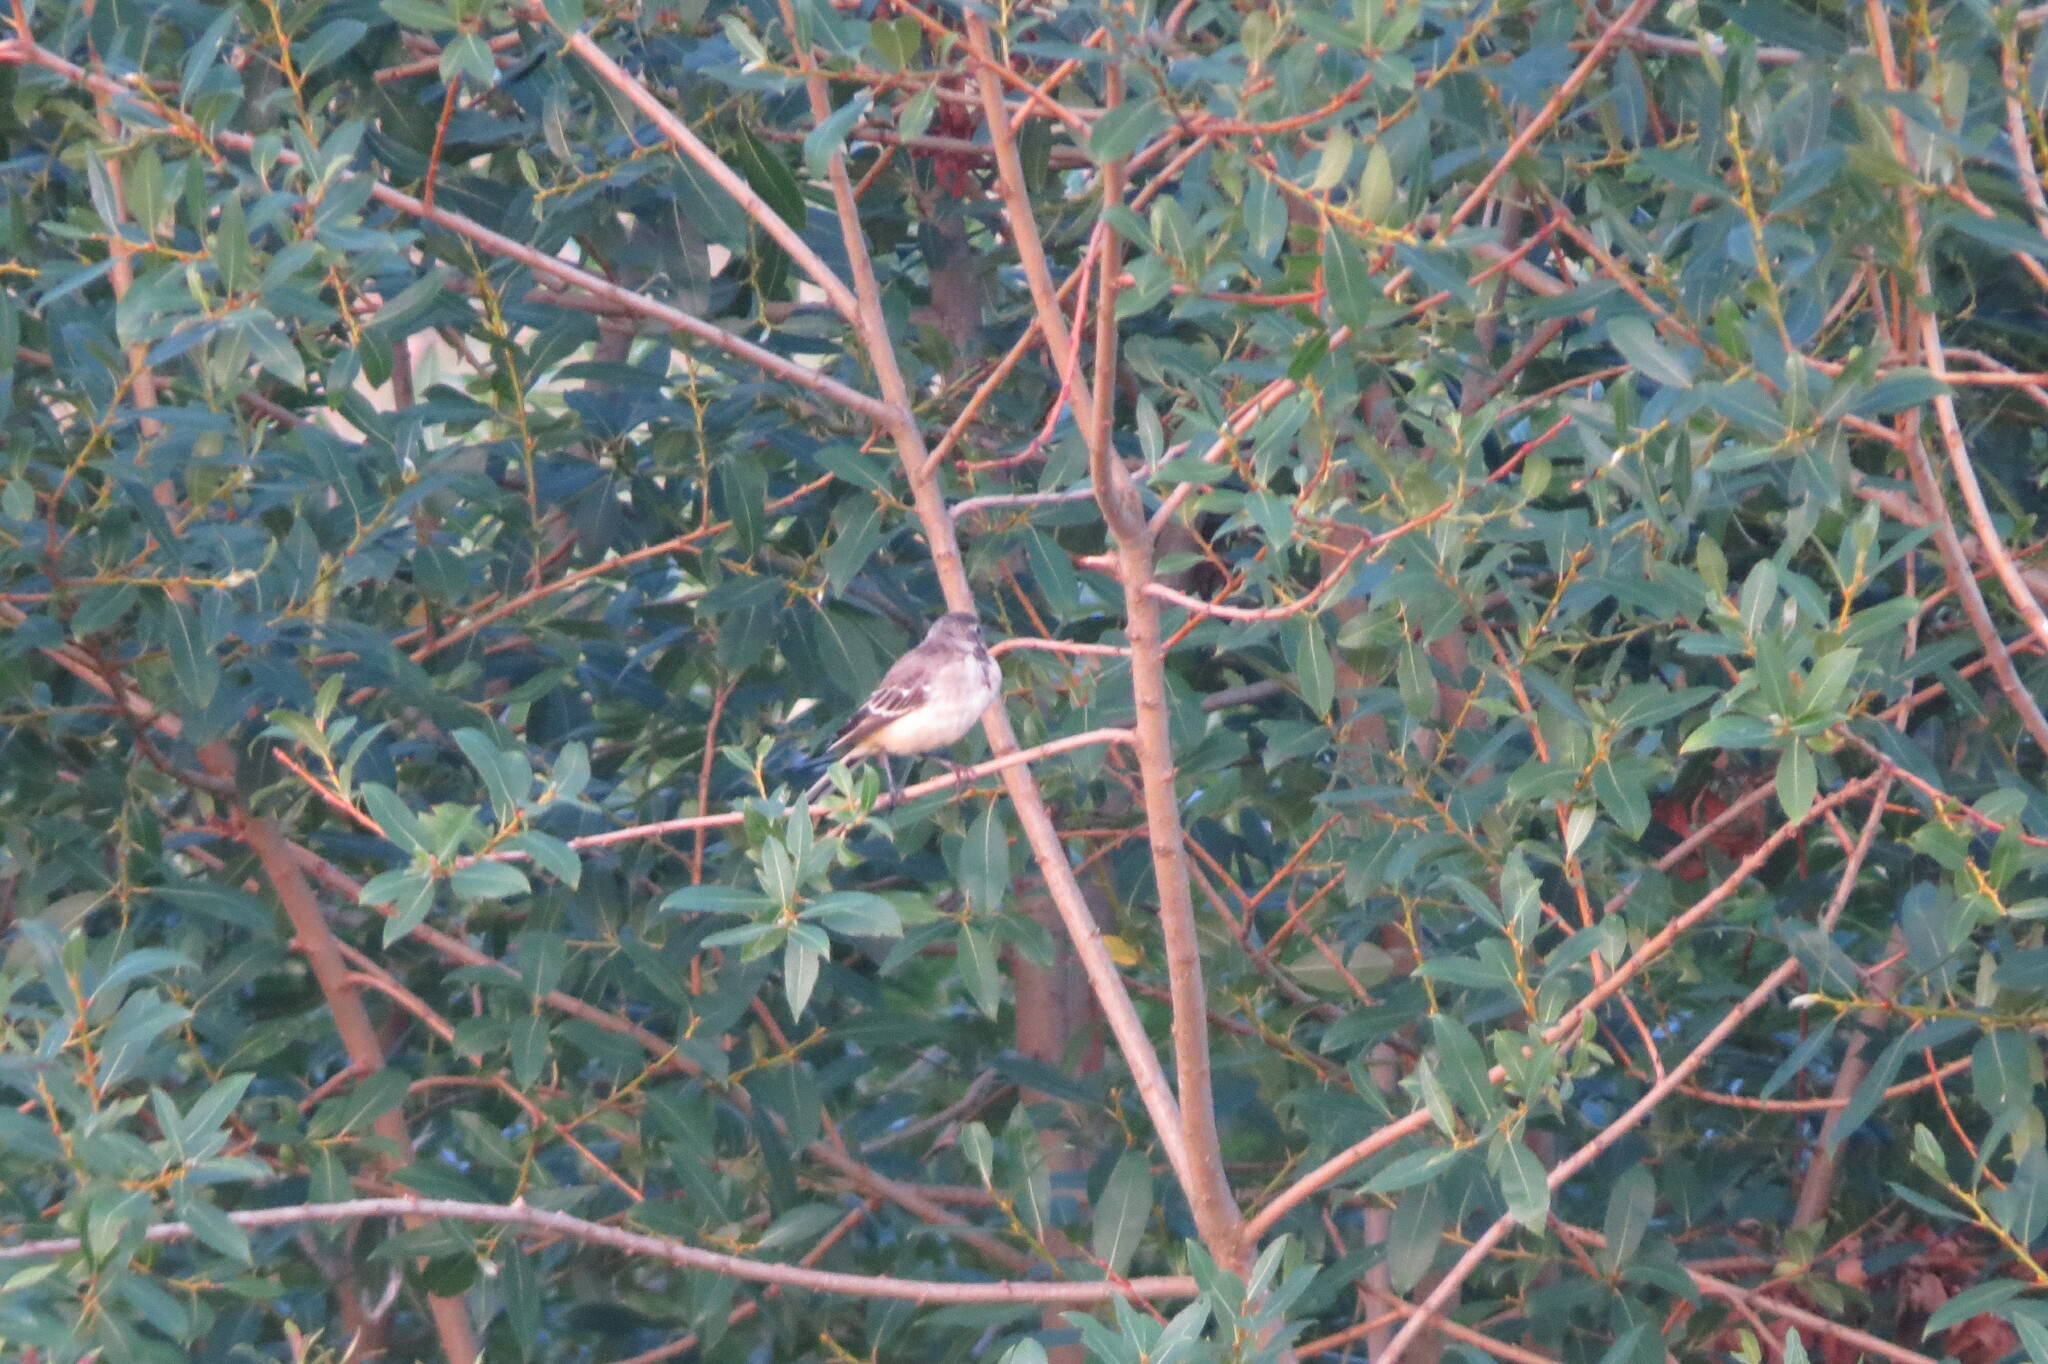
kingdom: Animalia
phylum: Chordata
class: Aves
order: Passeriformes
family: Motacillidae
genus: Motacilla
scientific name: Motacilla flava
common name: Western yellow wagtail
